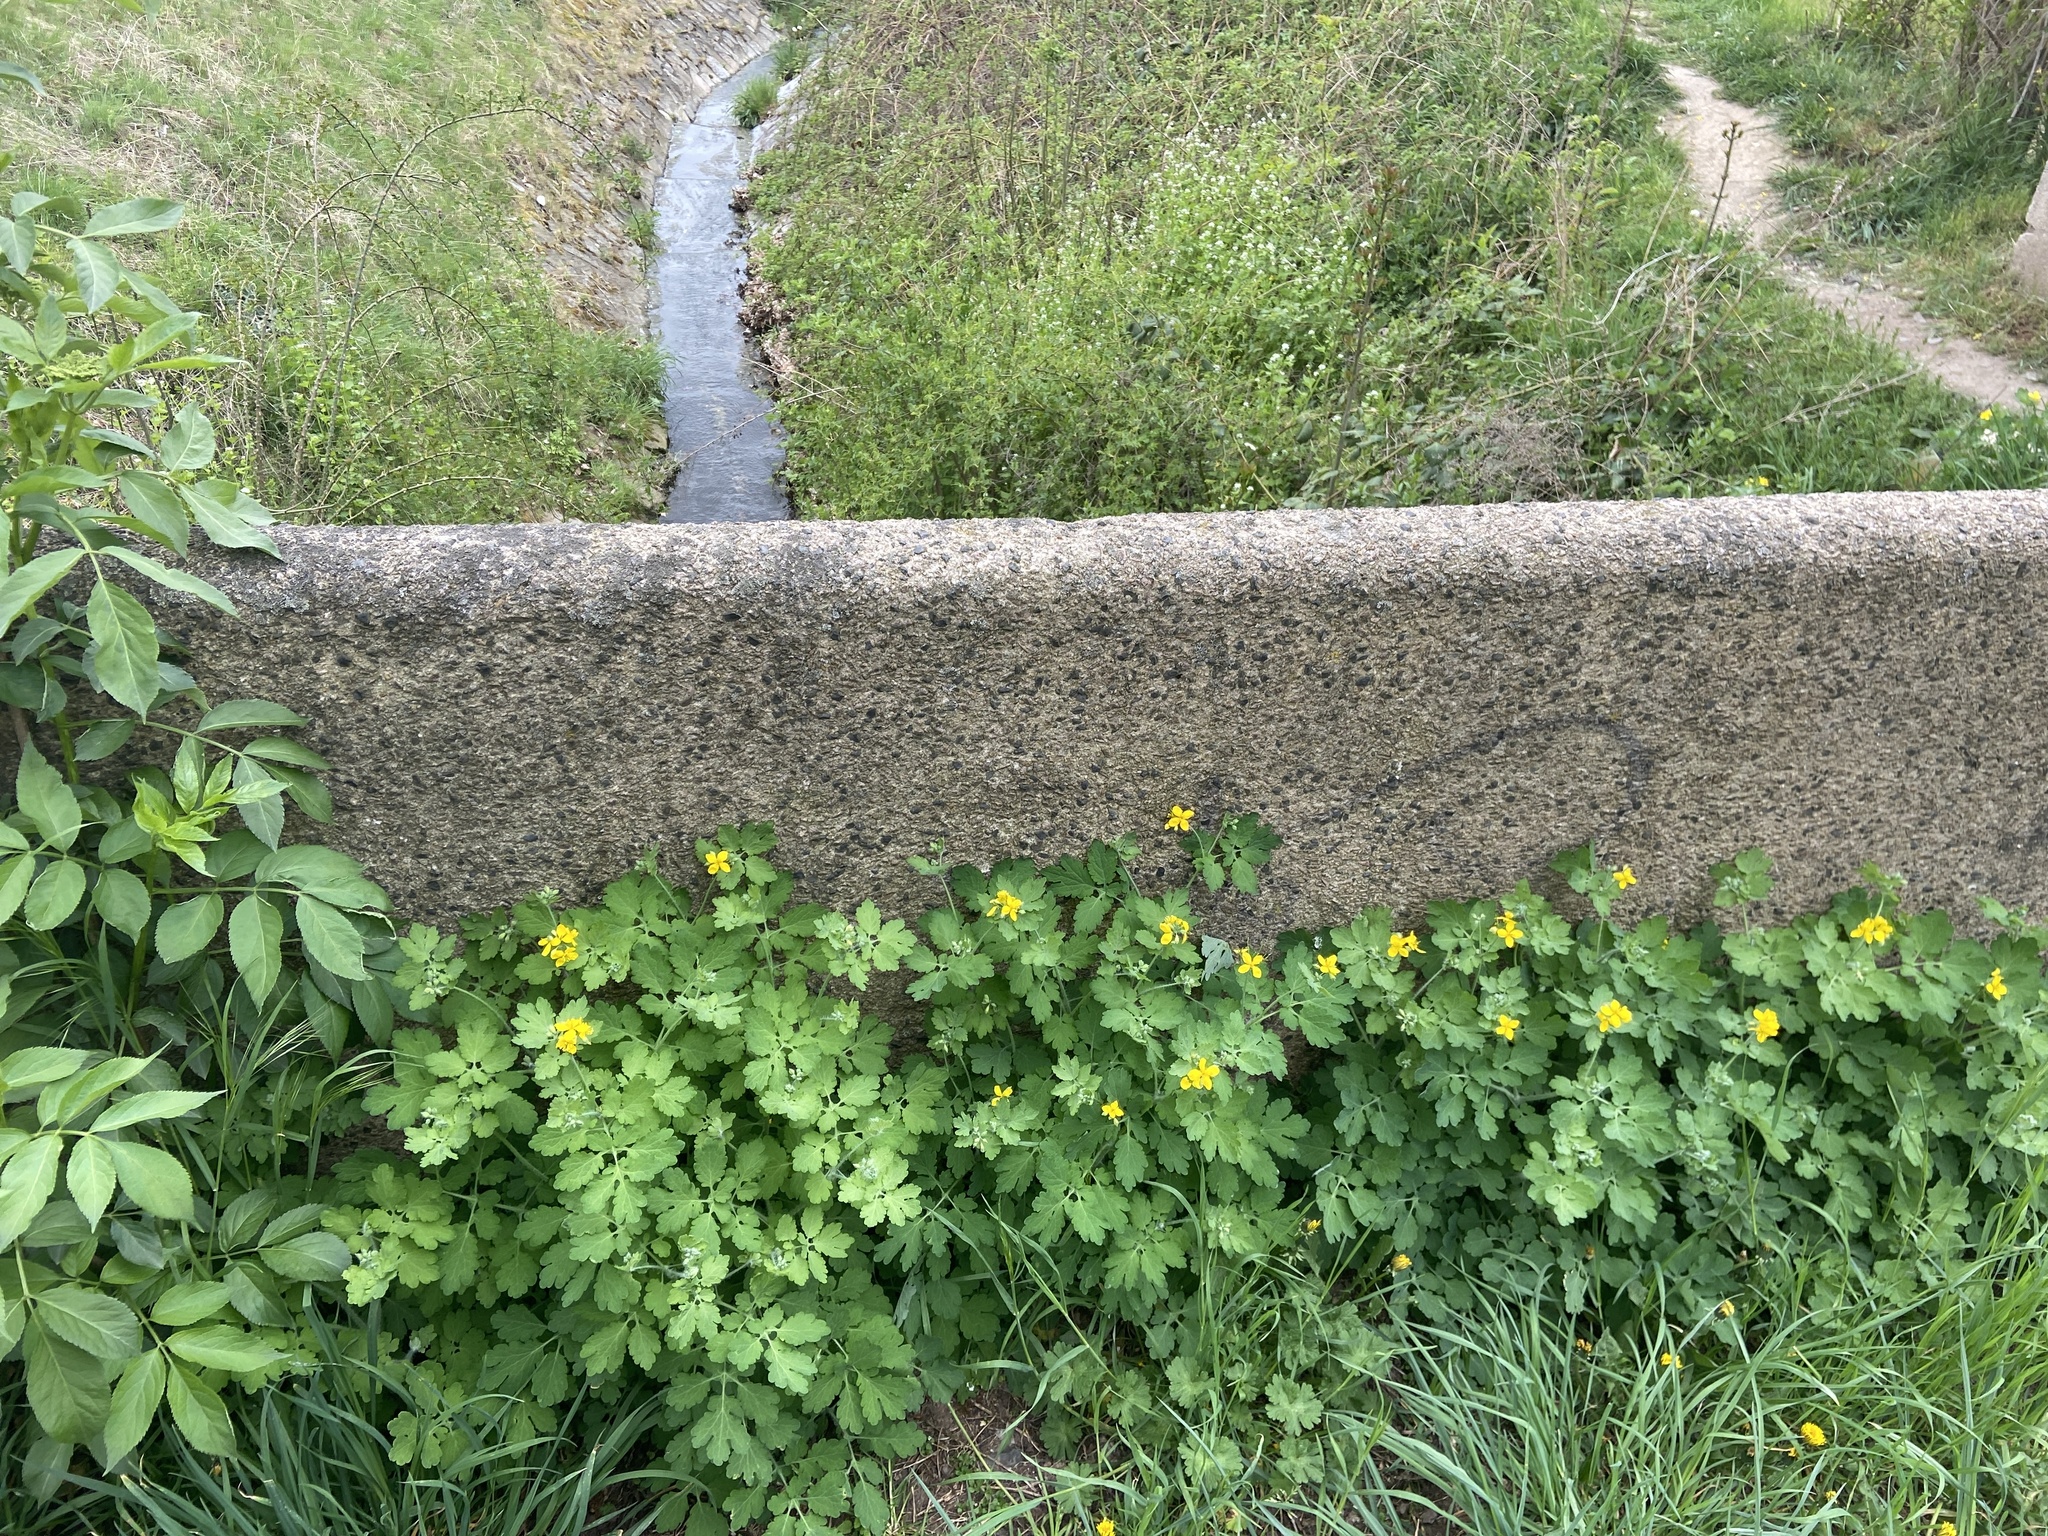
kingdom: Plantae
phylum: Tracheophyta
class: Magnoliopsida
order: Ranunculales
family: Papaveraceae
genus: Chelidonium
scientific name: Chelidonium majus
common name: Greater celandine
